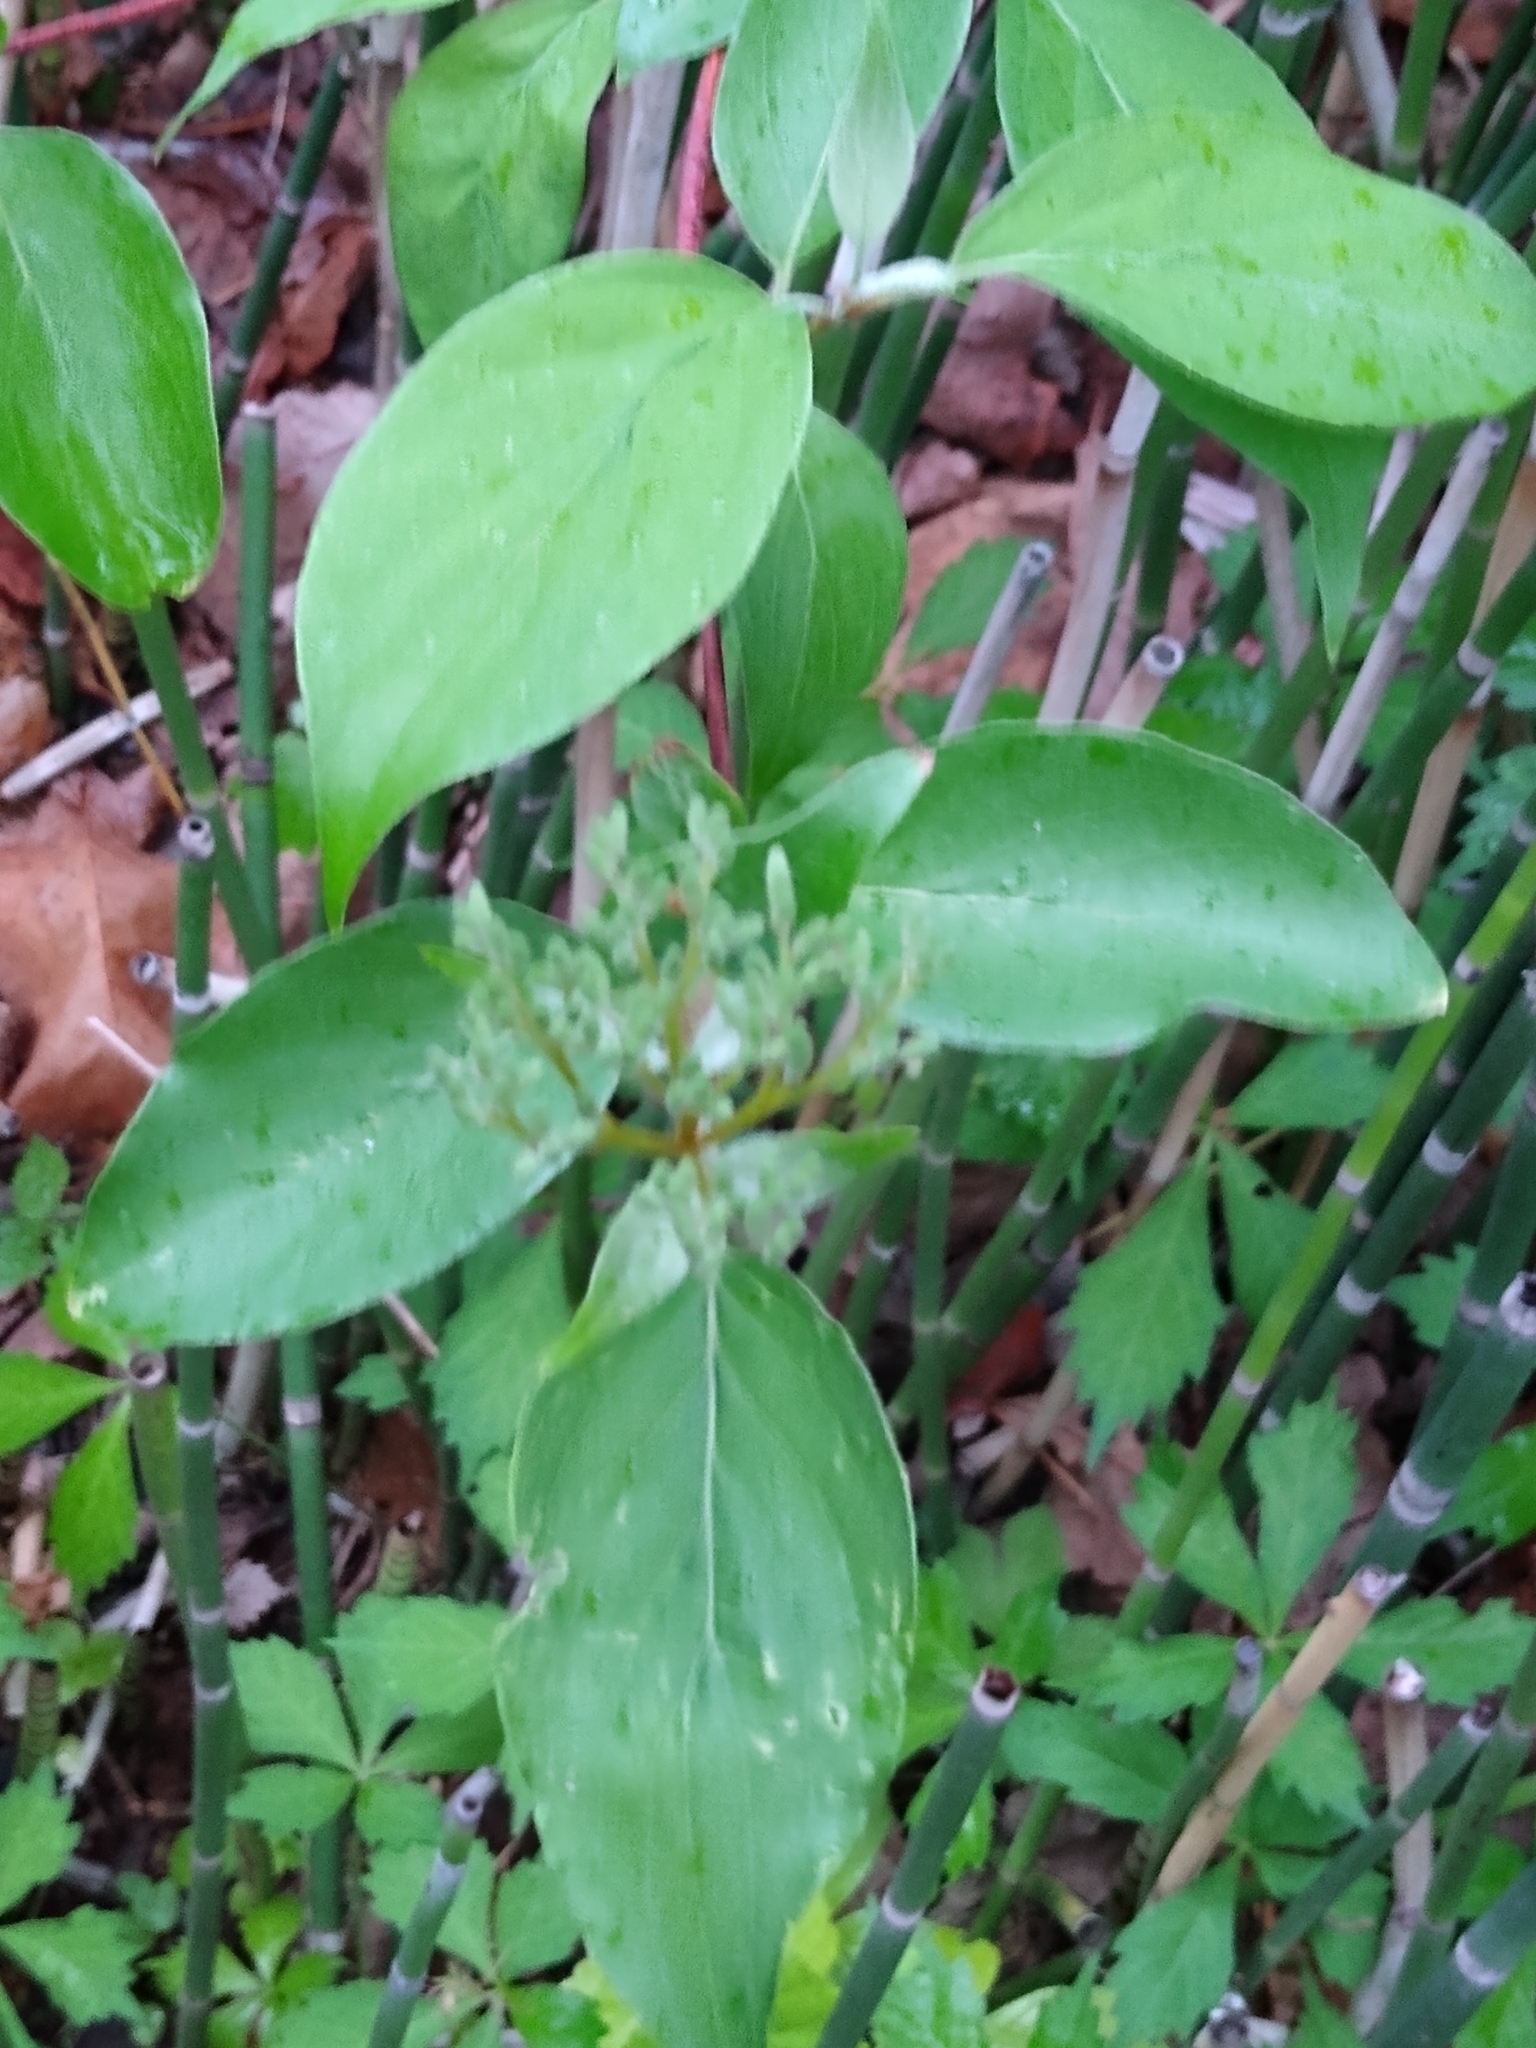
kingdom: Plantae
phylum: Tracheophyta
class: Magnoliopsida
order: Cornales
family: Cornaceae
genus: Cornus
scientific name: Cornus drummondii
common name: Rough-leaf dogwood
